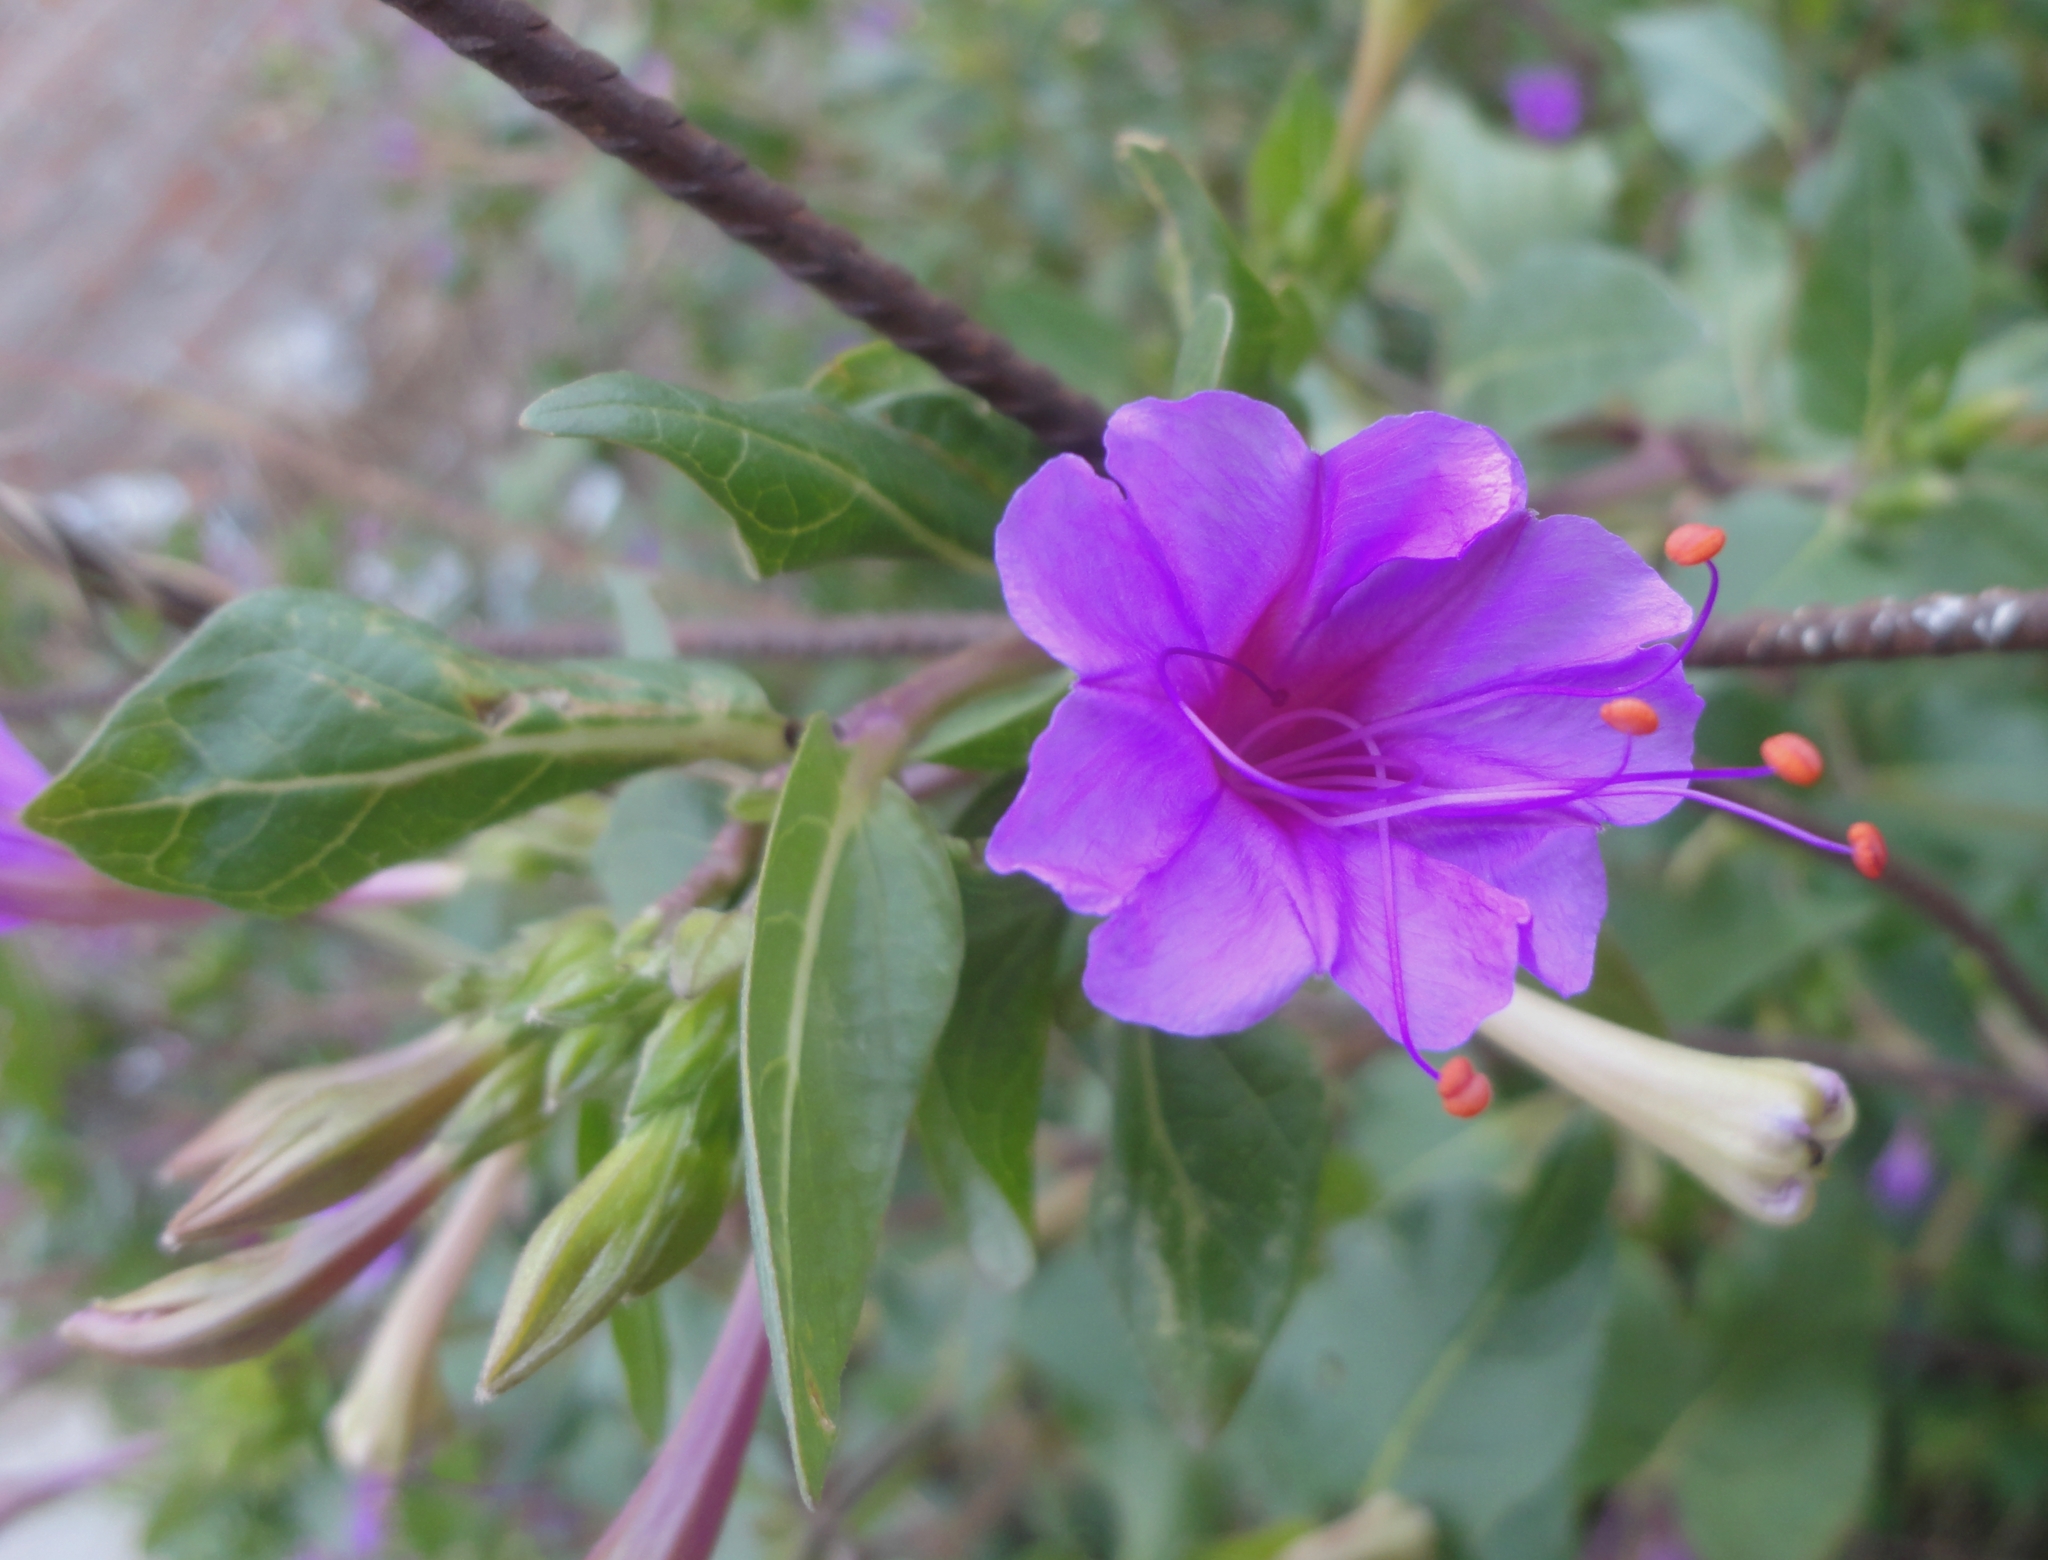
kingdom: Plantae
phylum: Tracheophyta
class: Magnoliopsida
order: Caryophyllales
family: Nyctaginaceae
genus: Mirabilis
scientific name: Mirabilis jalapa
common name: Marvel-of-peru
